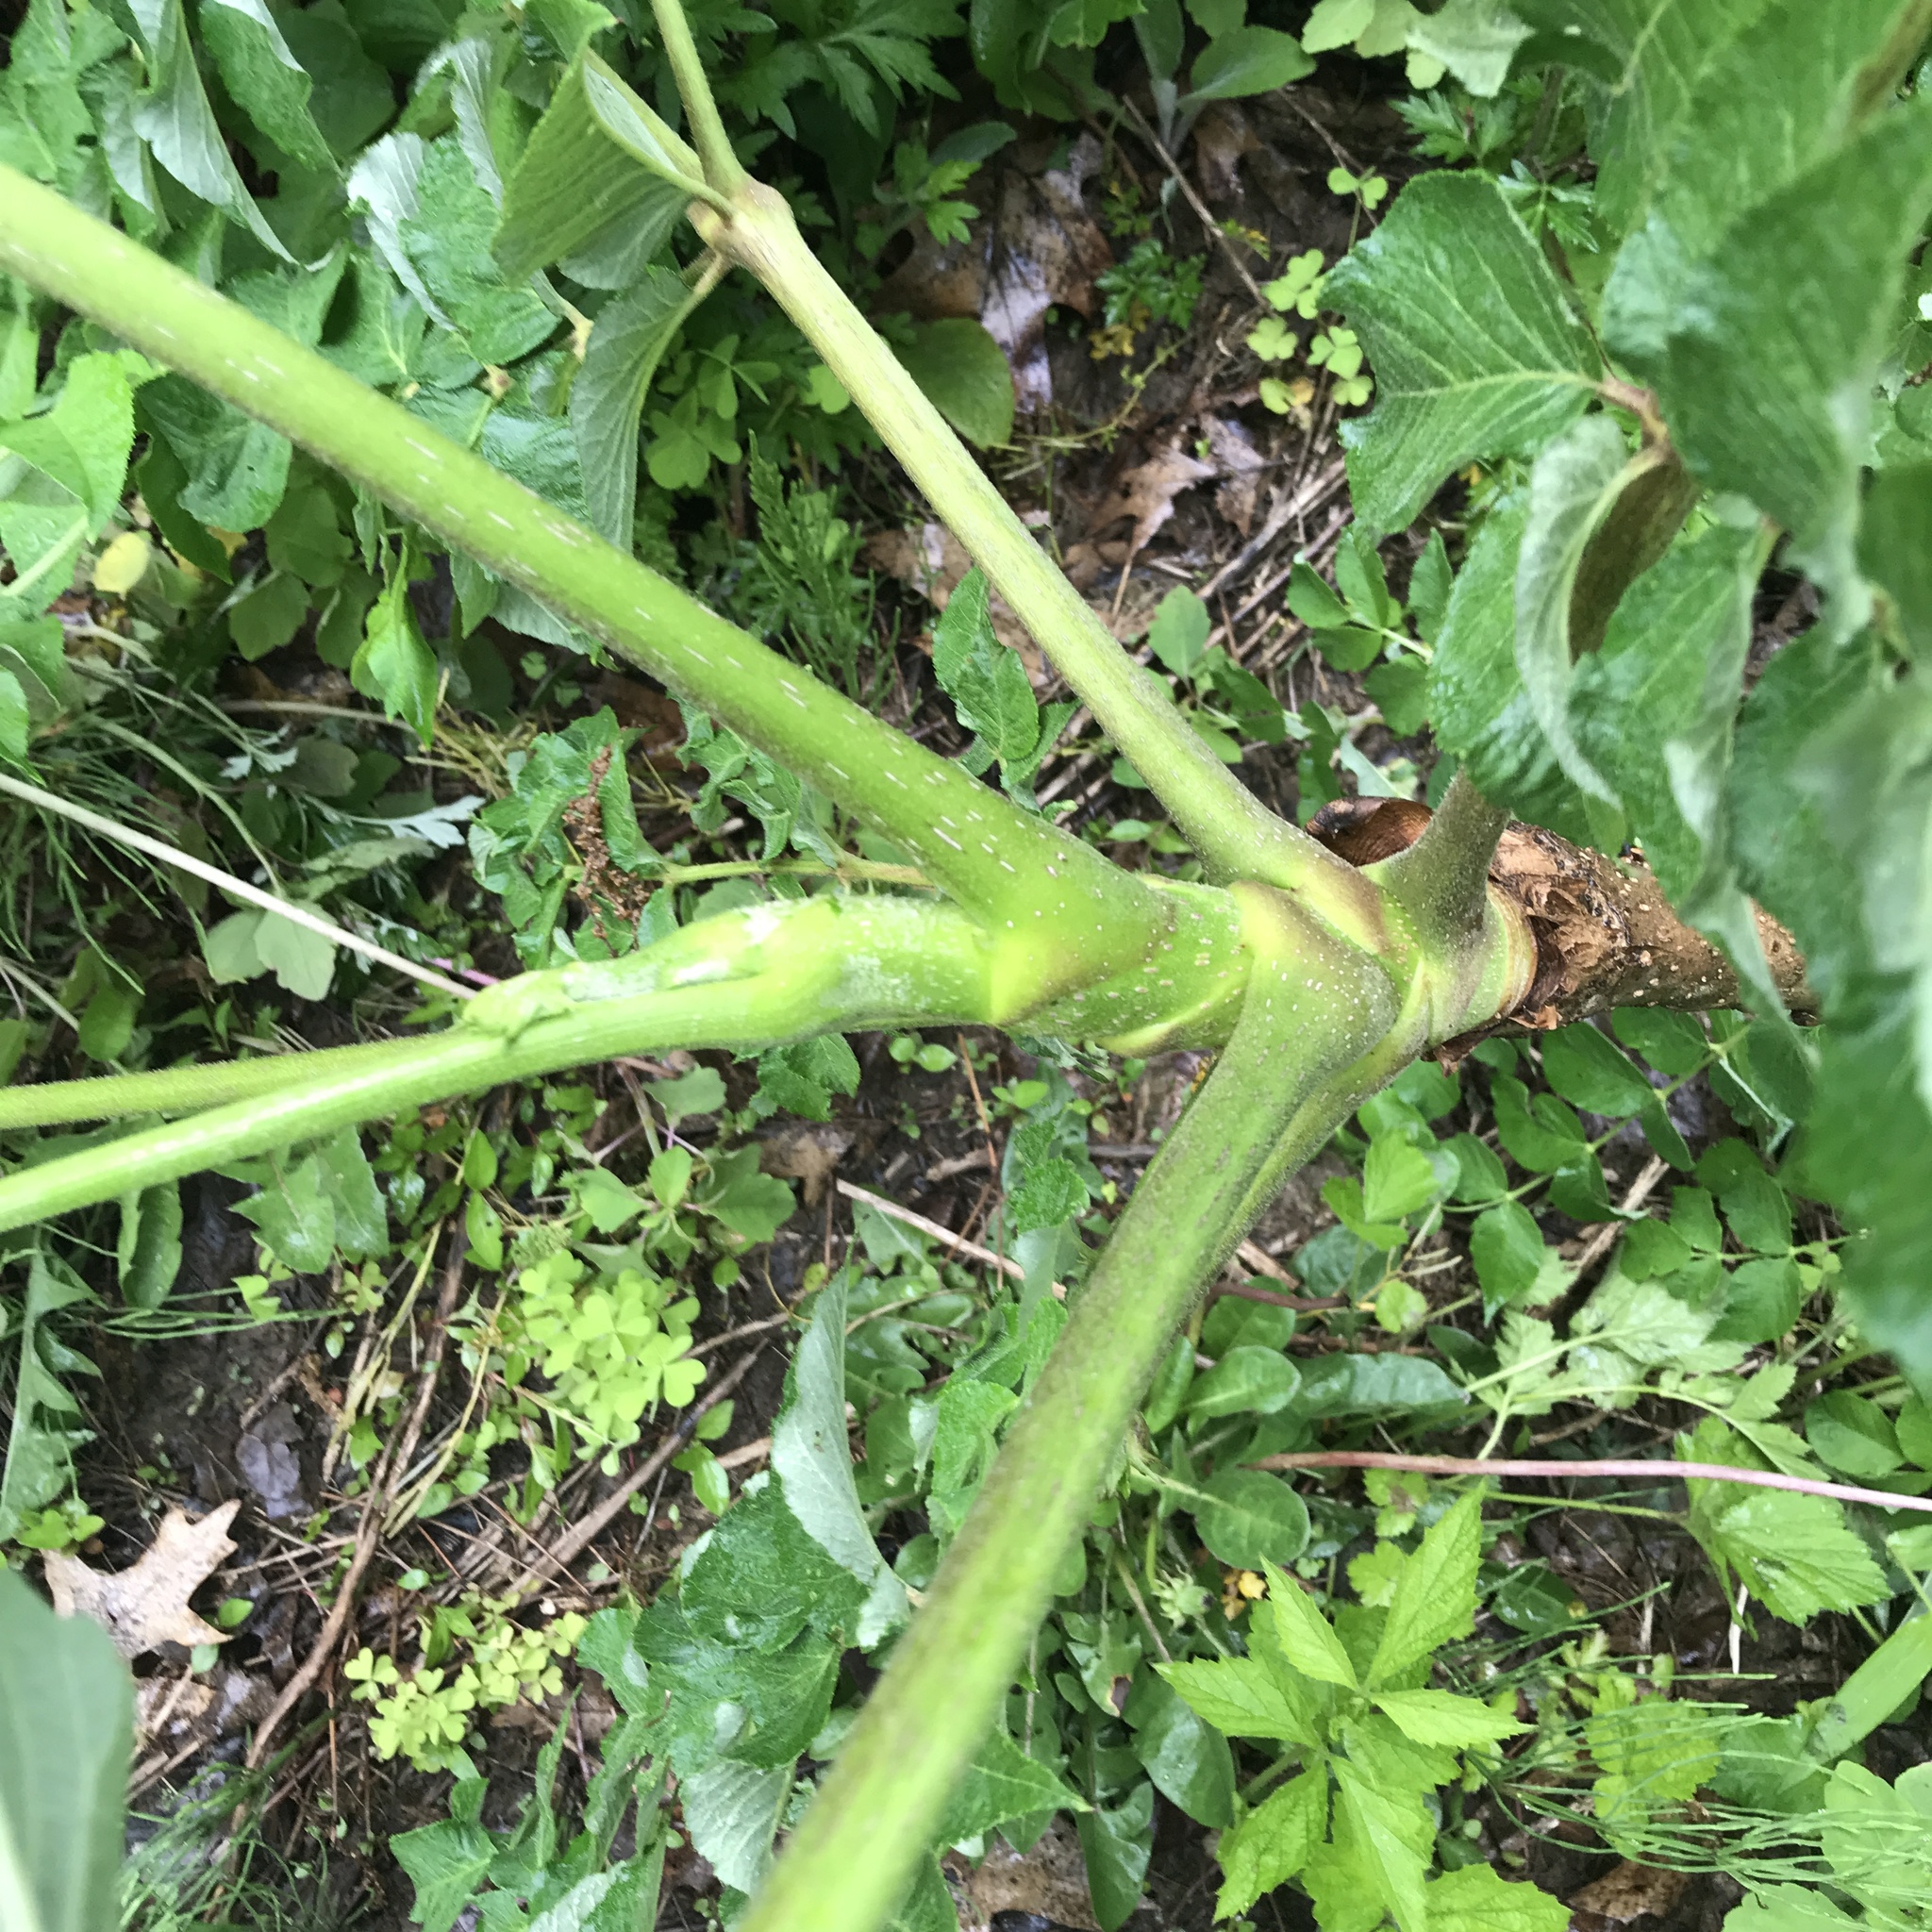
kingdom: Plantae
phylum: Tracheophyta
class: Magnoliopsida
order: Apiales
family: Araliaceae
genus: Aralia
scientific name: Aralia elata
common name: Japanese angelica-tree
